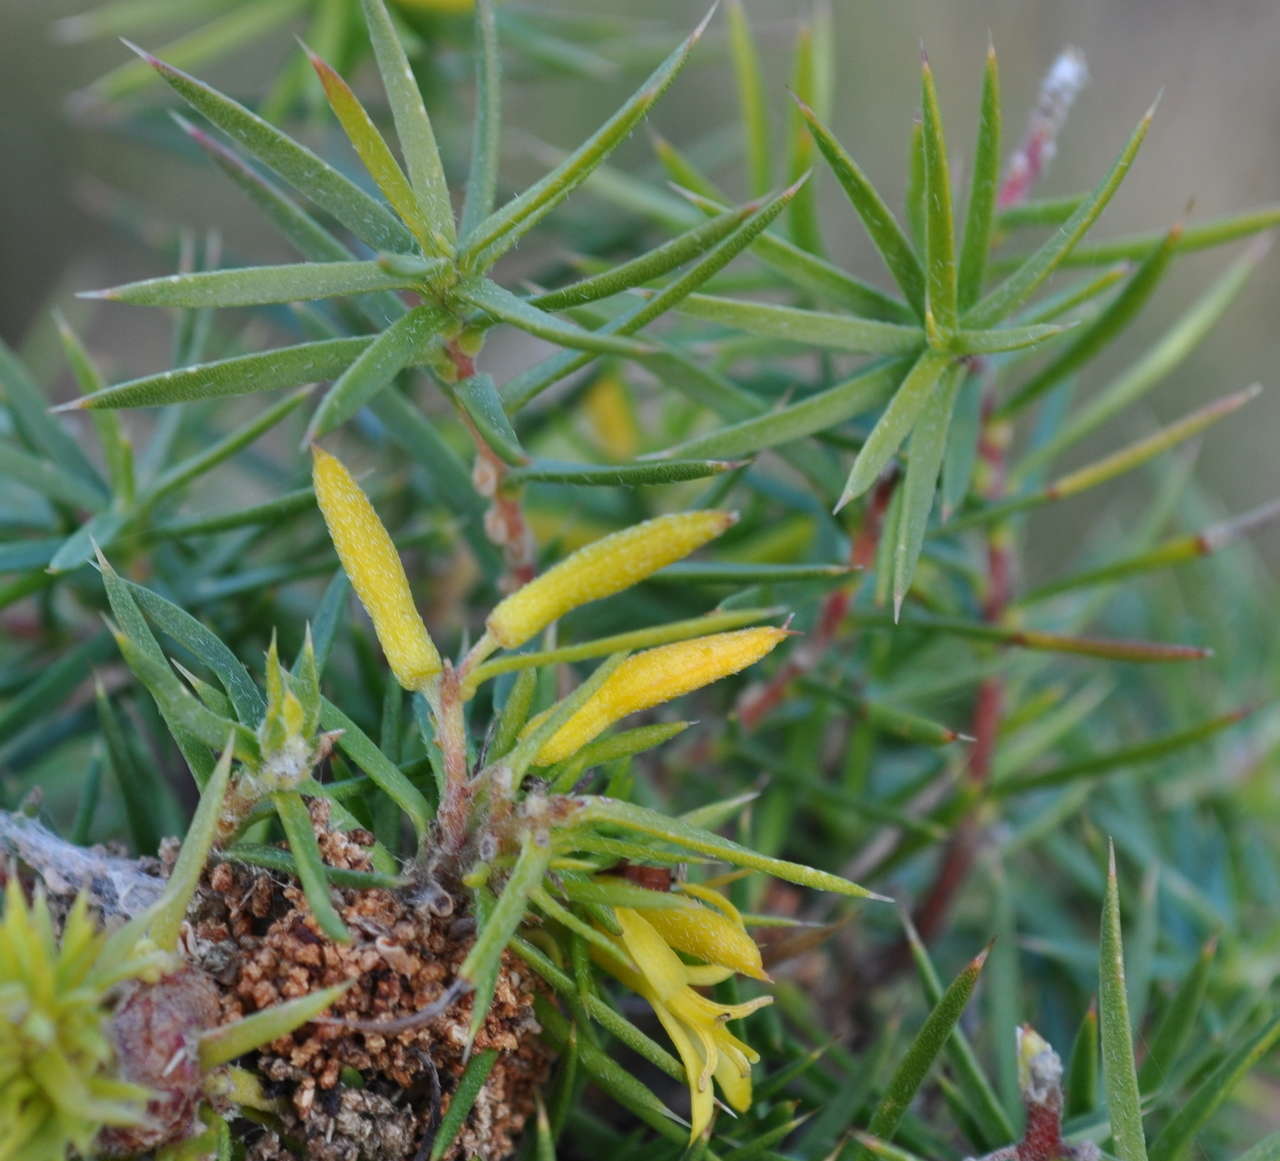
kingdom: Plantae
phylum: Tracheophyta
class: Magnoliopsida
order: Proteales
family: Proteaceae
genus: Persoonia
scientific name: Persoonia juniperina
